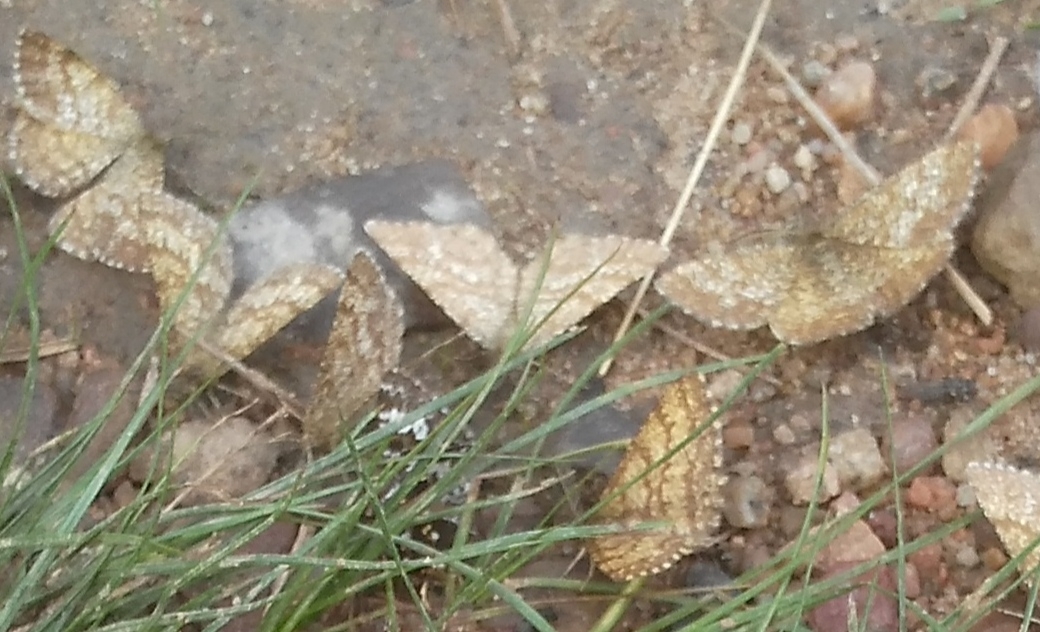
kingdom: Animalia
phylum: Arthropoda
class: Insecta
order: Lepidoptera
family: Geometridae
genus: Ematurga
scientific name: Ematurga atomaria
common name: Common heath
